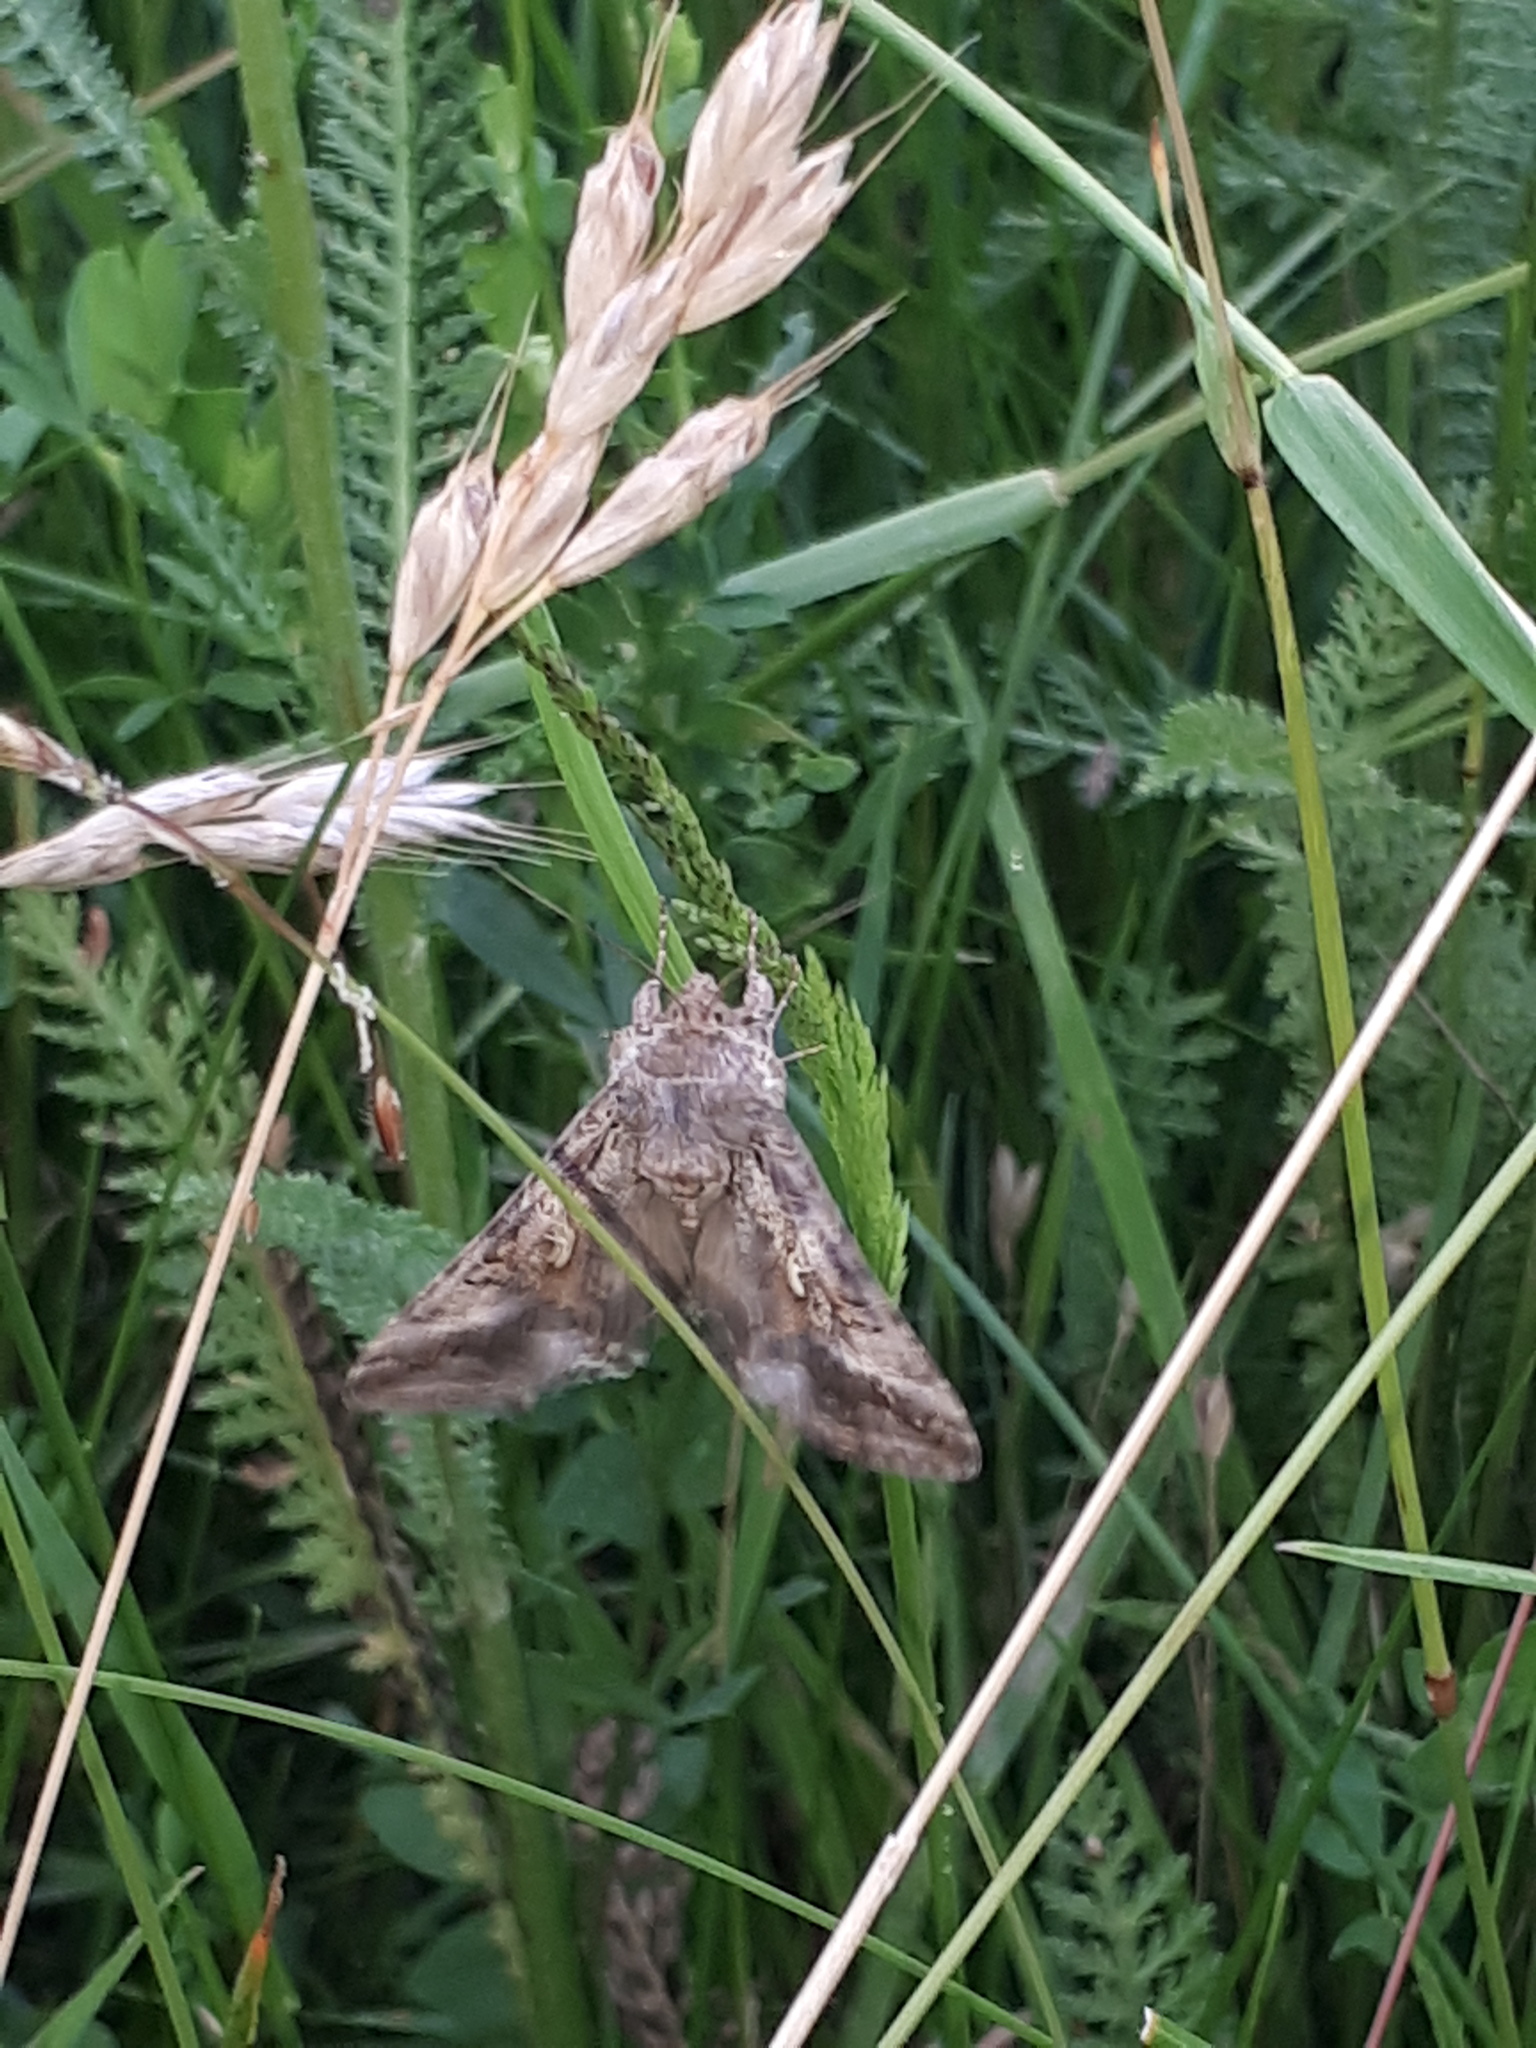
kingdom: Animalia
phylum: Arthropoda
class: Insecta
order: Lepidoptera
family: Noctuidae
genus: Autographa
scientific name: Autographa gamma
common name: Silver y
